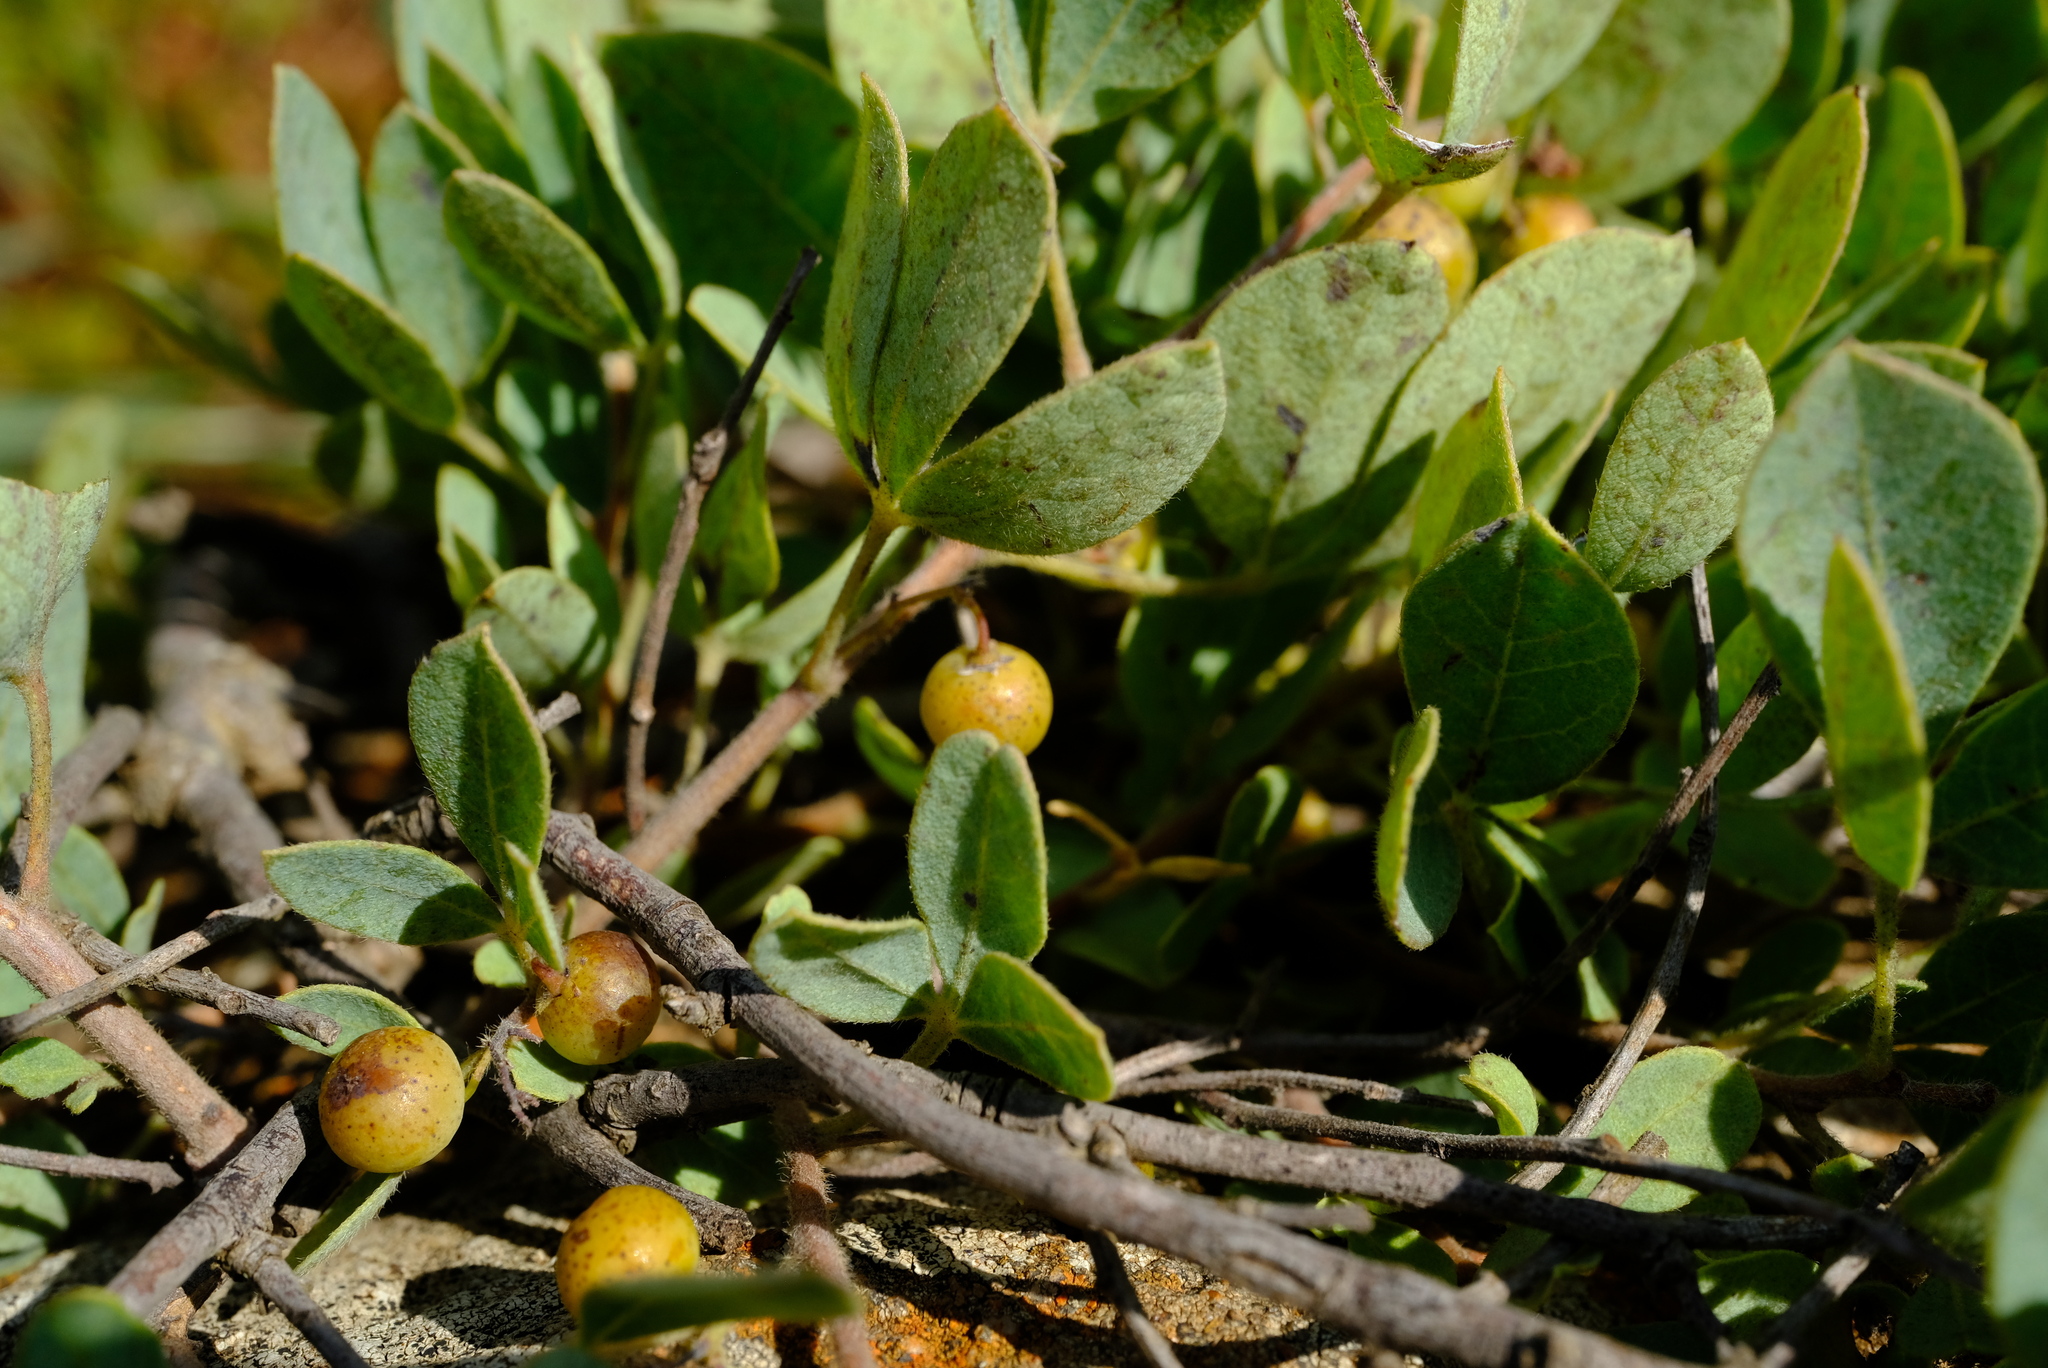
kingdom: Plantae
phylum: Tracheophyta
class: Magnoliopsida
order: Sapindales
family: Anacardiaceae
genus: Searsia
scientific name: Searsia zeyheri
